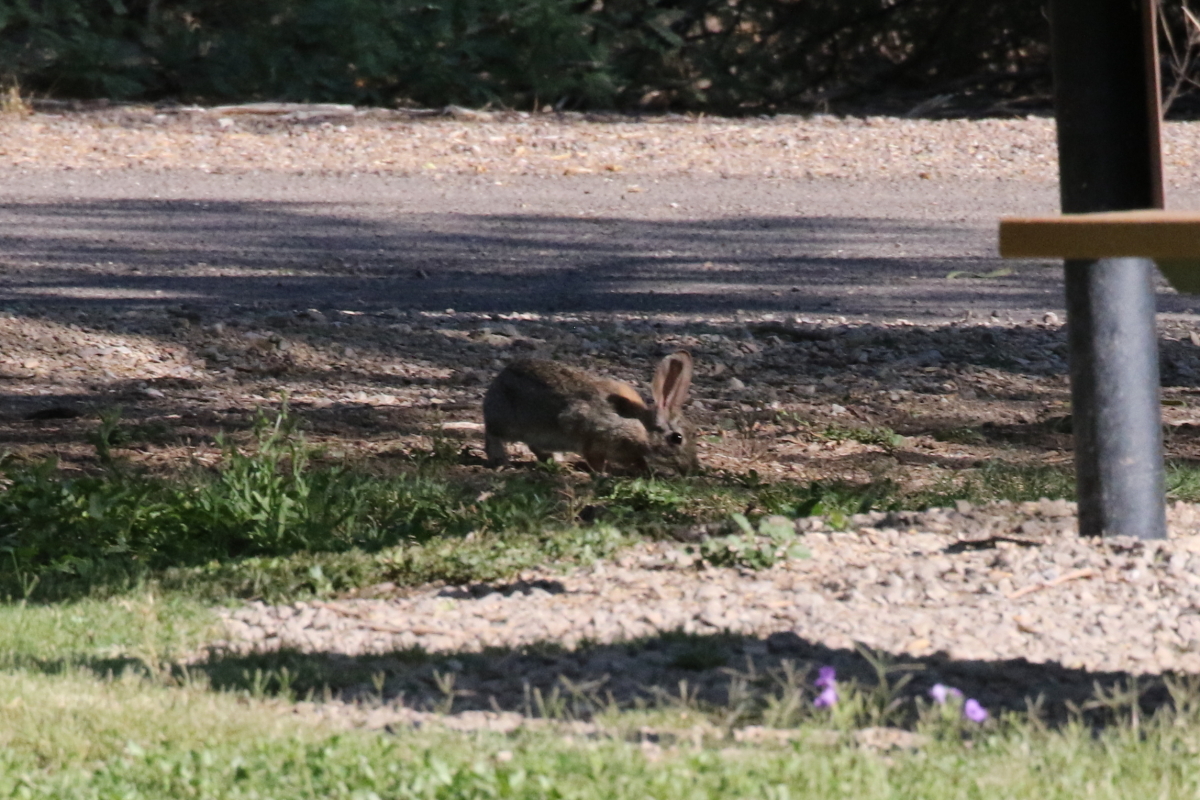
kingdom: Animalia
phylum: Chordata
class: Mammalia
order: Lagomorpha
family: Leporidae
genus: Sylvilagus
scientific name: Sylvilagus audubonii
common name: Desert cottontail
